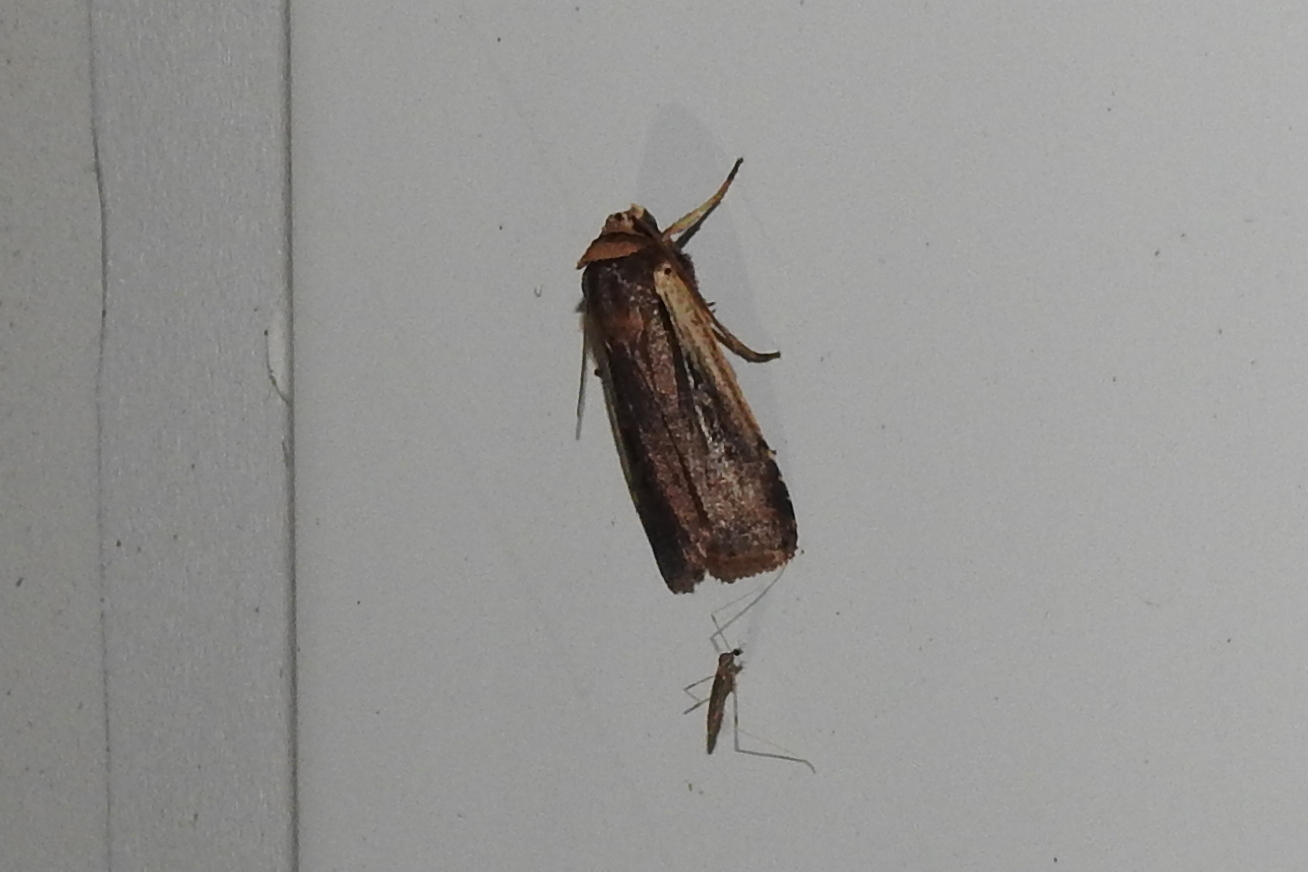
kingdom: Animalia
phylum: Arthropoda
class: Insecta
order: Lepidoptera
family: Noctuidae
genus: Ochropleura
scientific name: Ochropleura implecta
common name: Flame-shouldered dart
